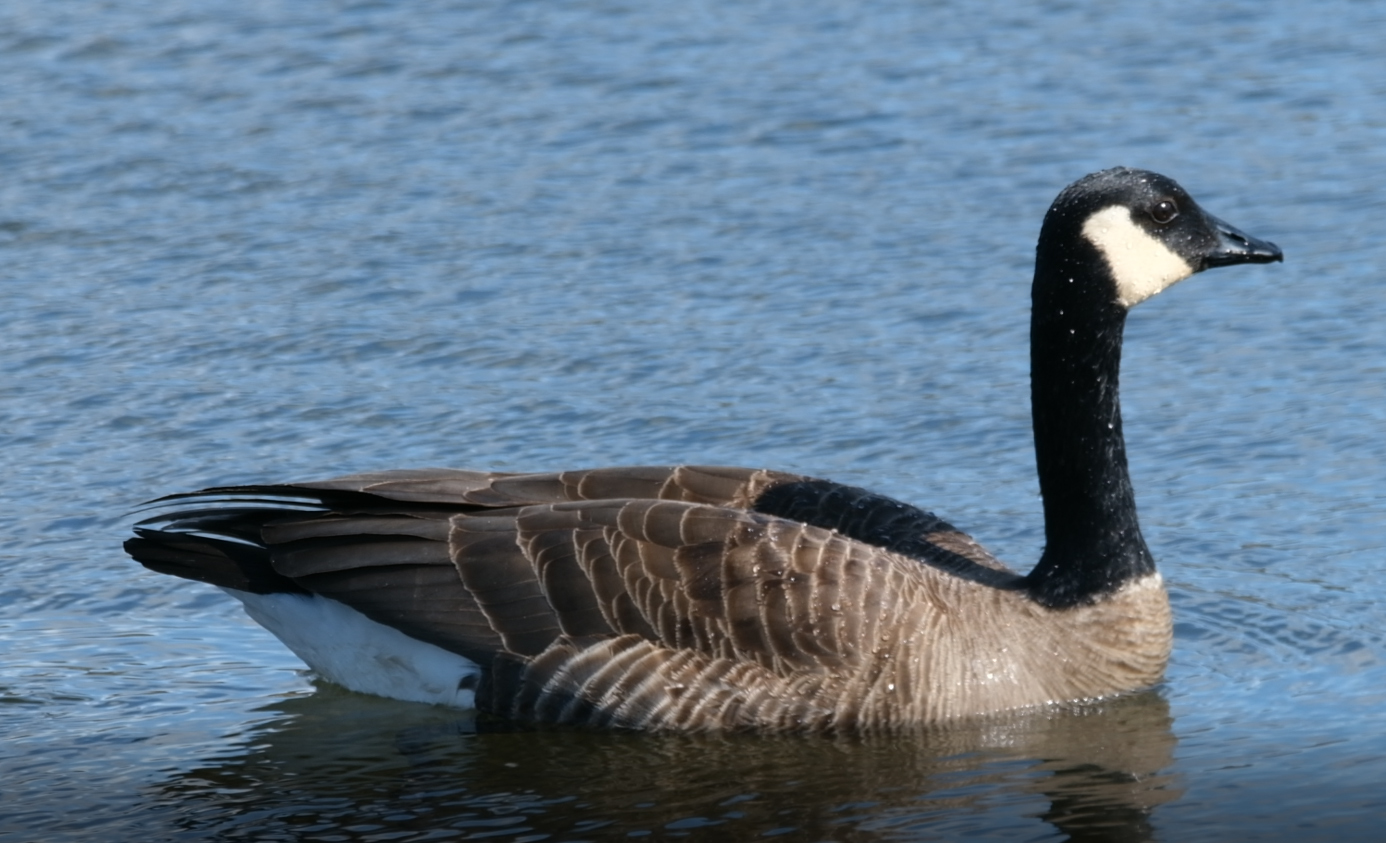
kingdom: Animalia
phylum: Chordata
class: Aves
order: Anseriformes
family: Anatidae
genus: Branta
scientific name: Branta canadensis
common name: Canada goose
